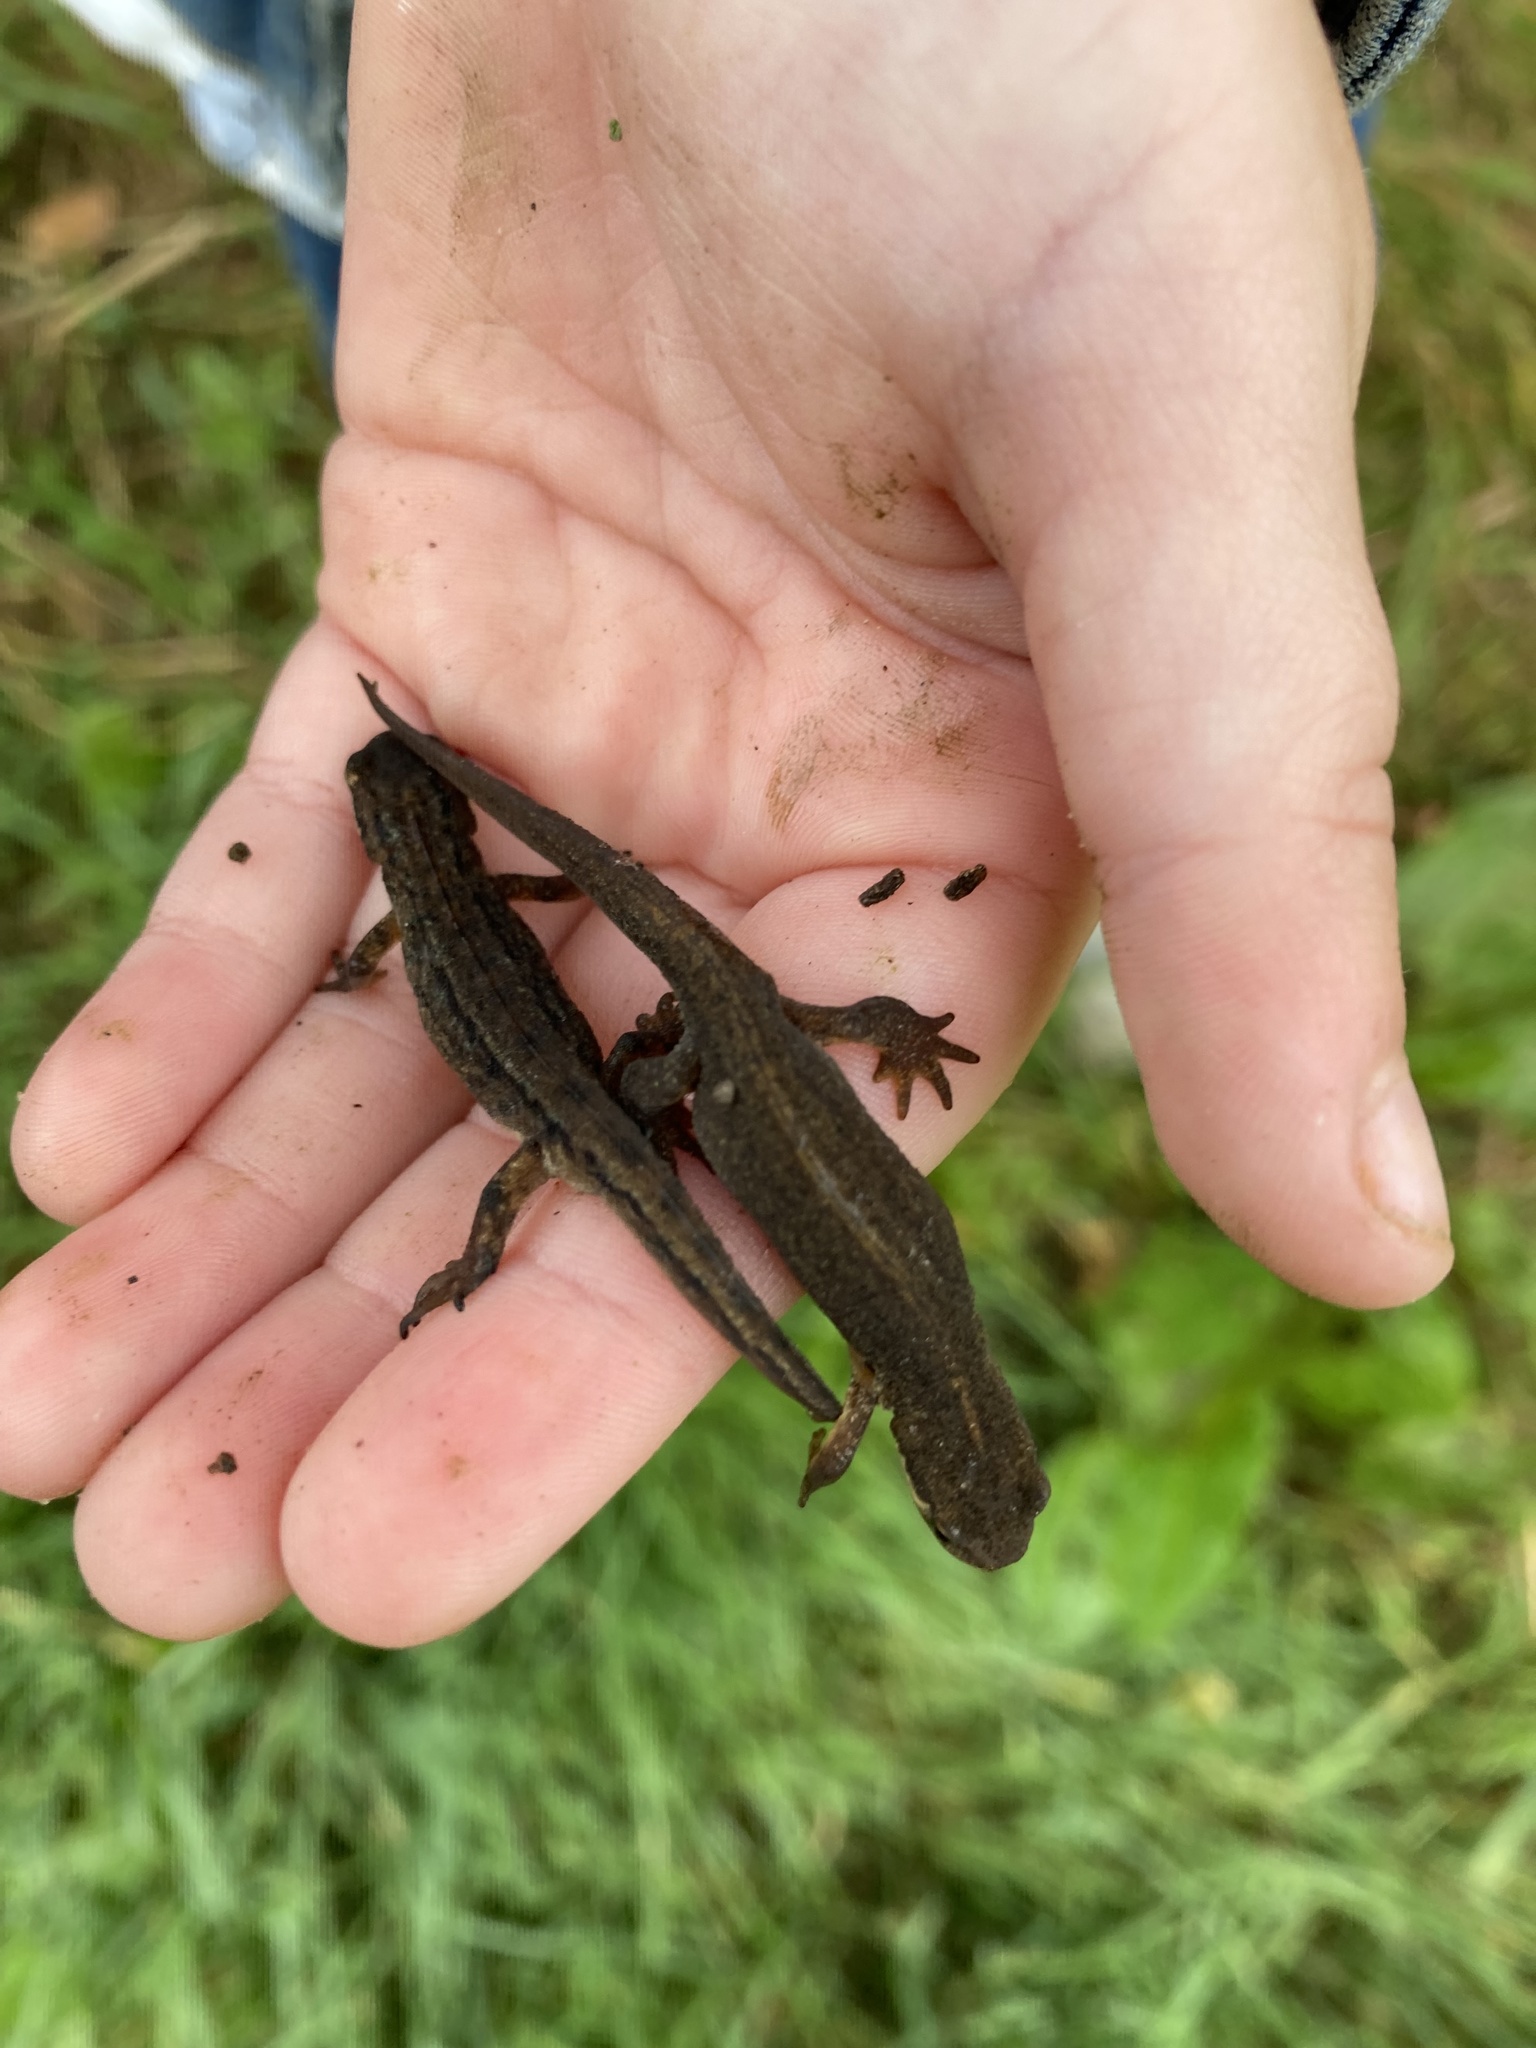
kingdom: Animalia
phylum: Chordata
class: Amphibia
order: Caudata
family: Salamandridae
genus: Lissotriton
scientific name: Lissotriton vulgaris
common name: Smooth newt
